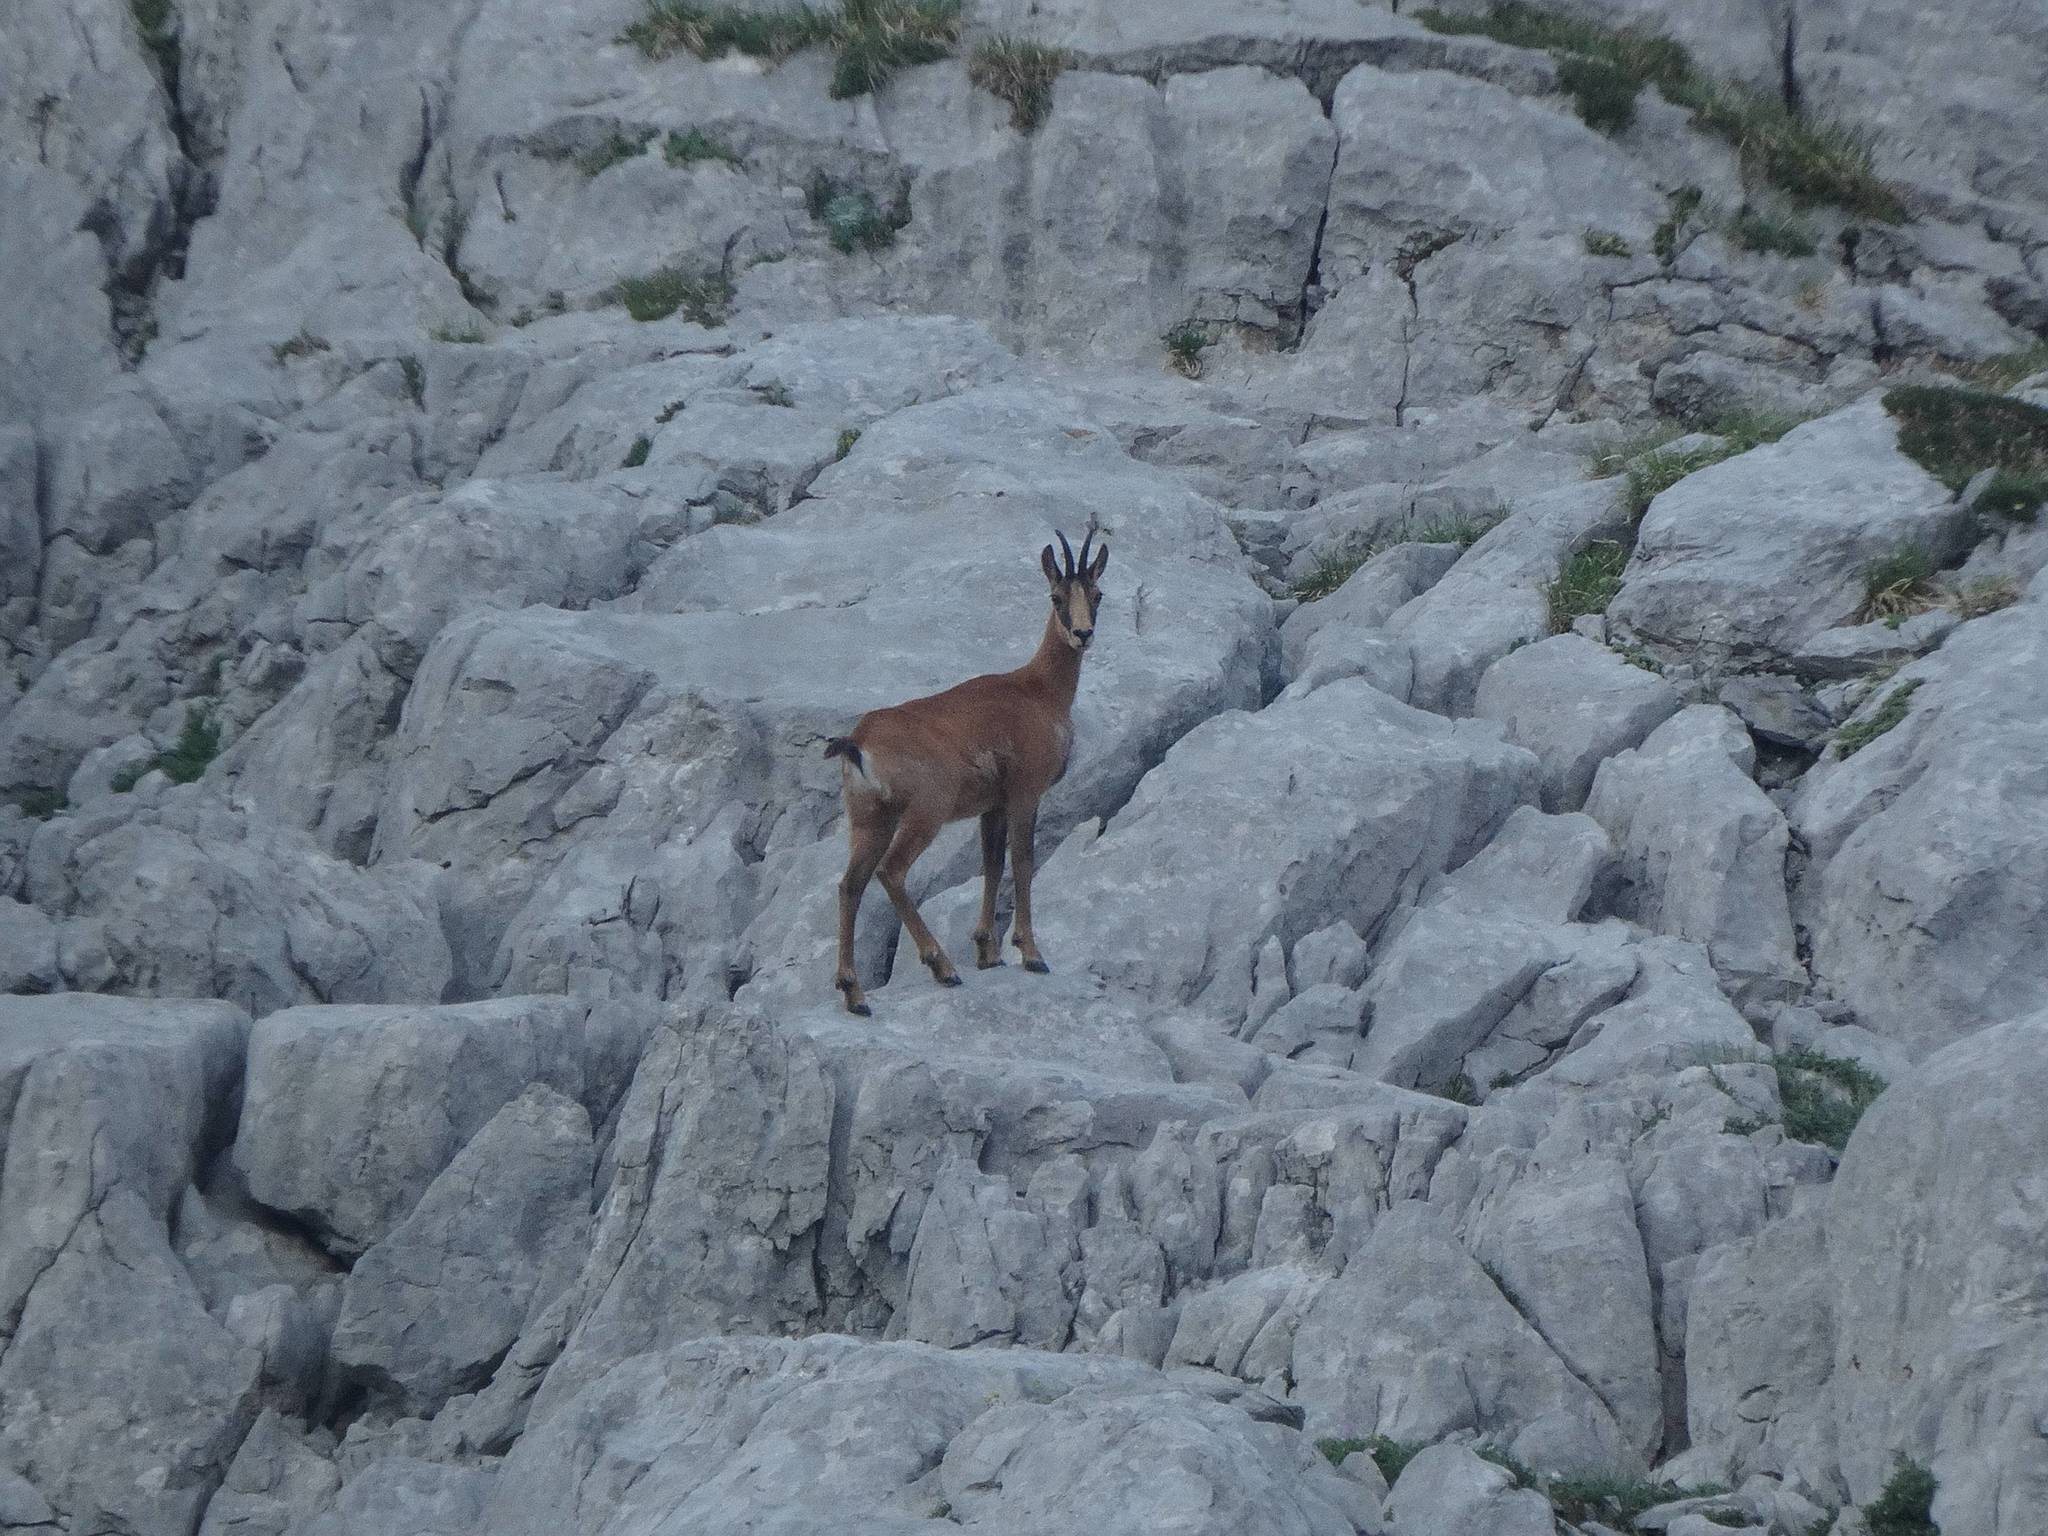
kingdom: Animalia
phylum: Chordata
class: Mammalia
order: Artiodactyla
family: Bovidae
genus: Rupicapra
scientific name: Rupicapra pyrenaica
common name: Pyrenean chamois
